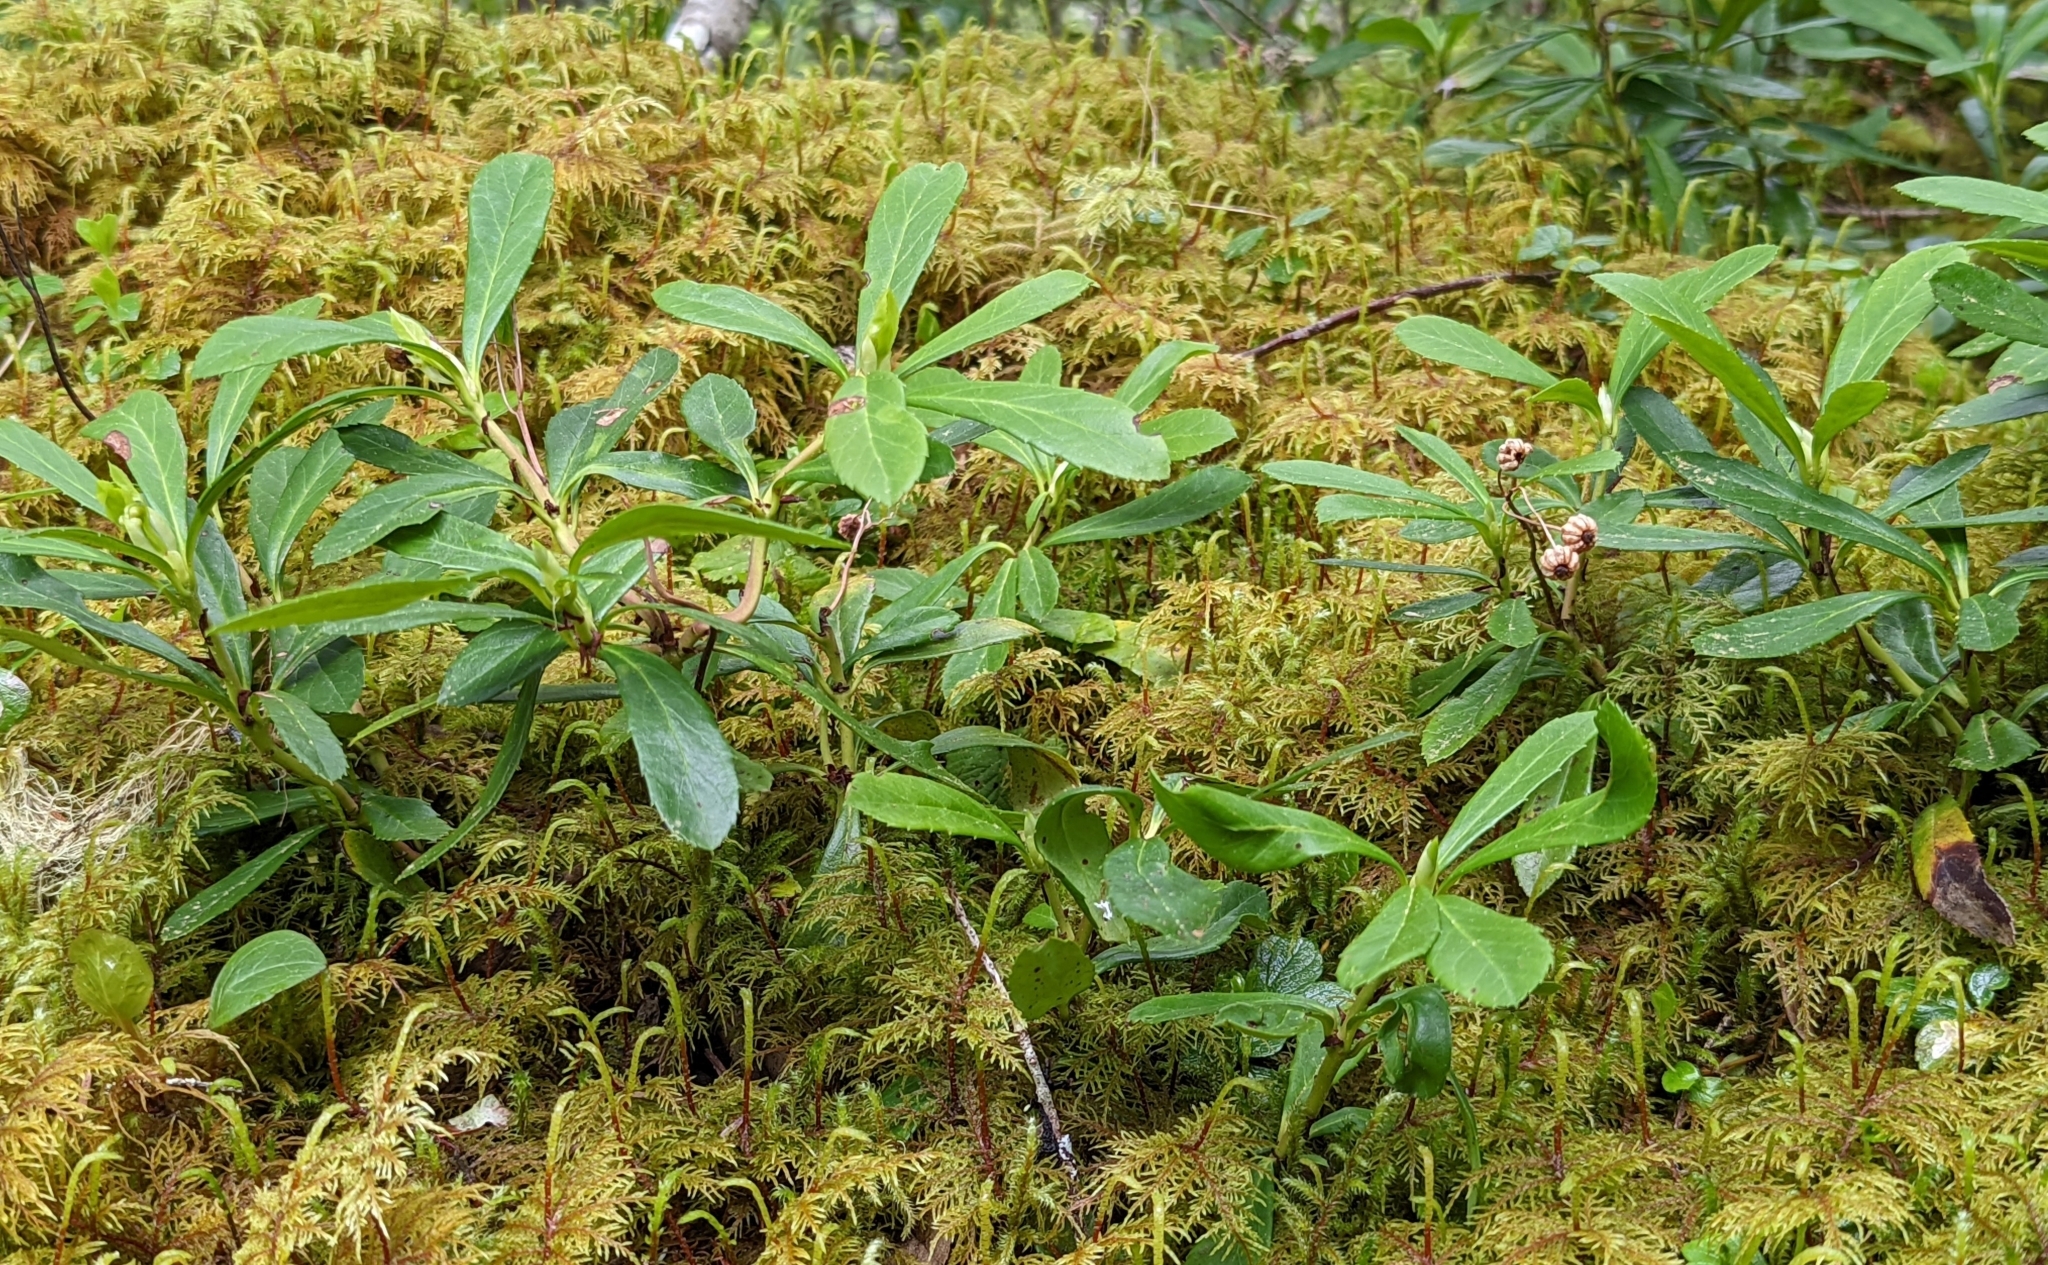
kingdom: Plantae
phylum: Tracheophyta
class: Magnoliopsida
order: Ericales
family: Ericaceae
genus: Chimaphila
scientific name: Chimaphila umbellata
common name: Pipsissewa
